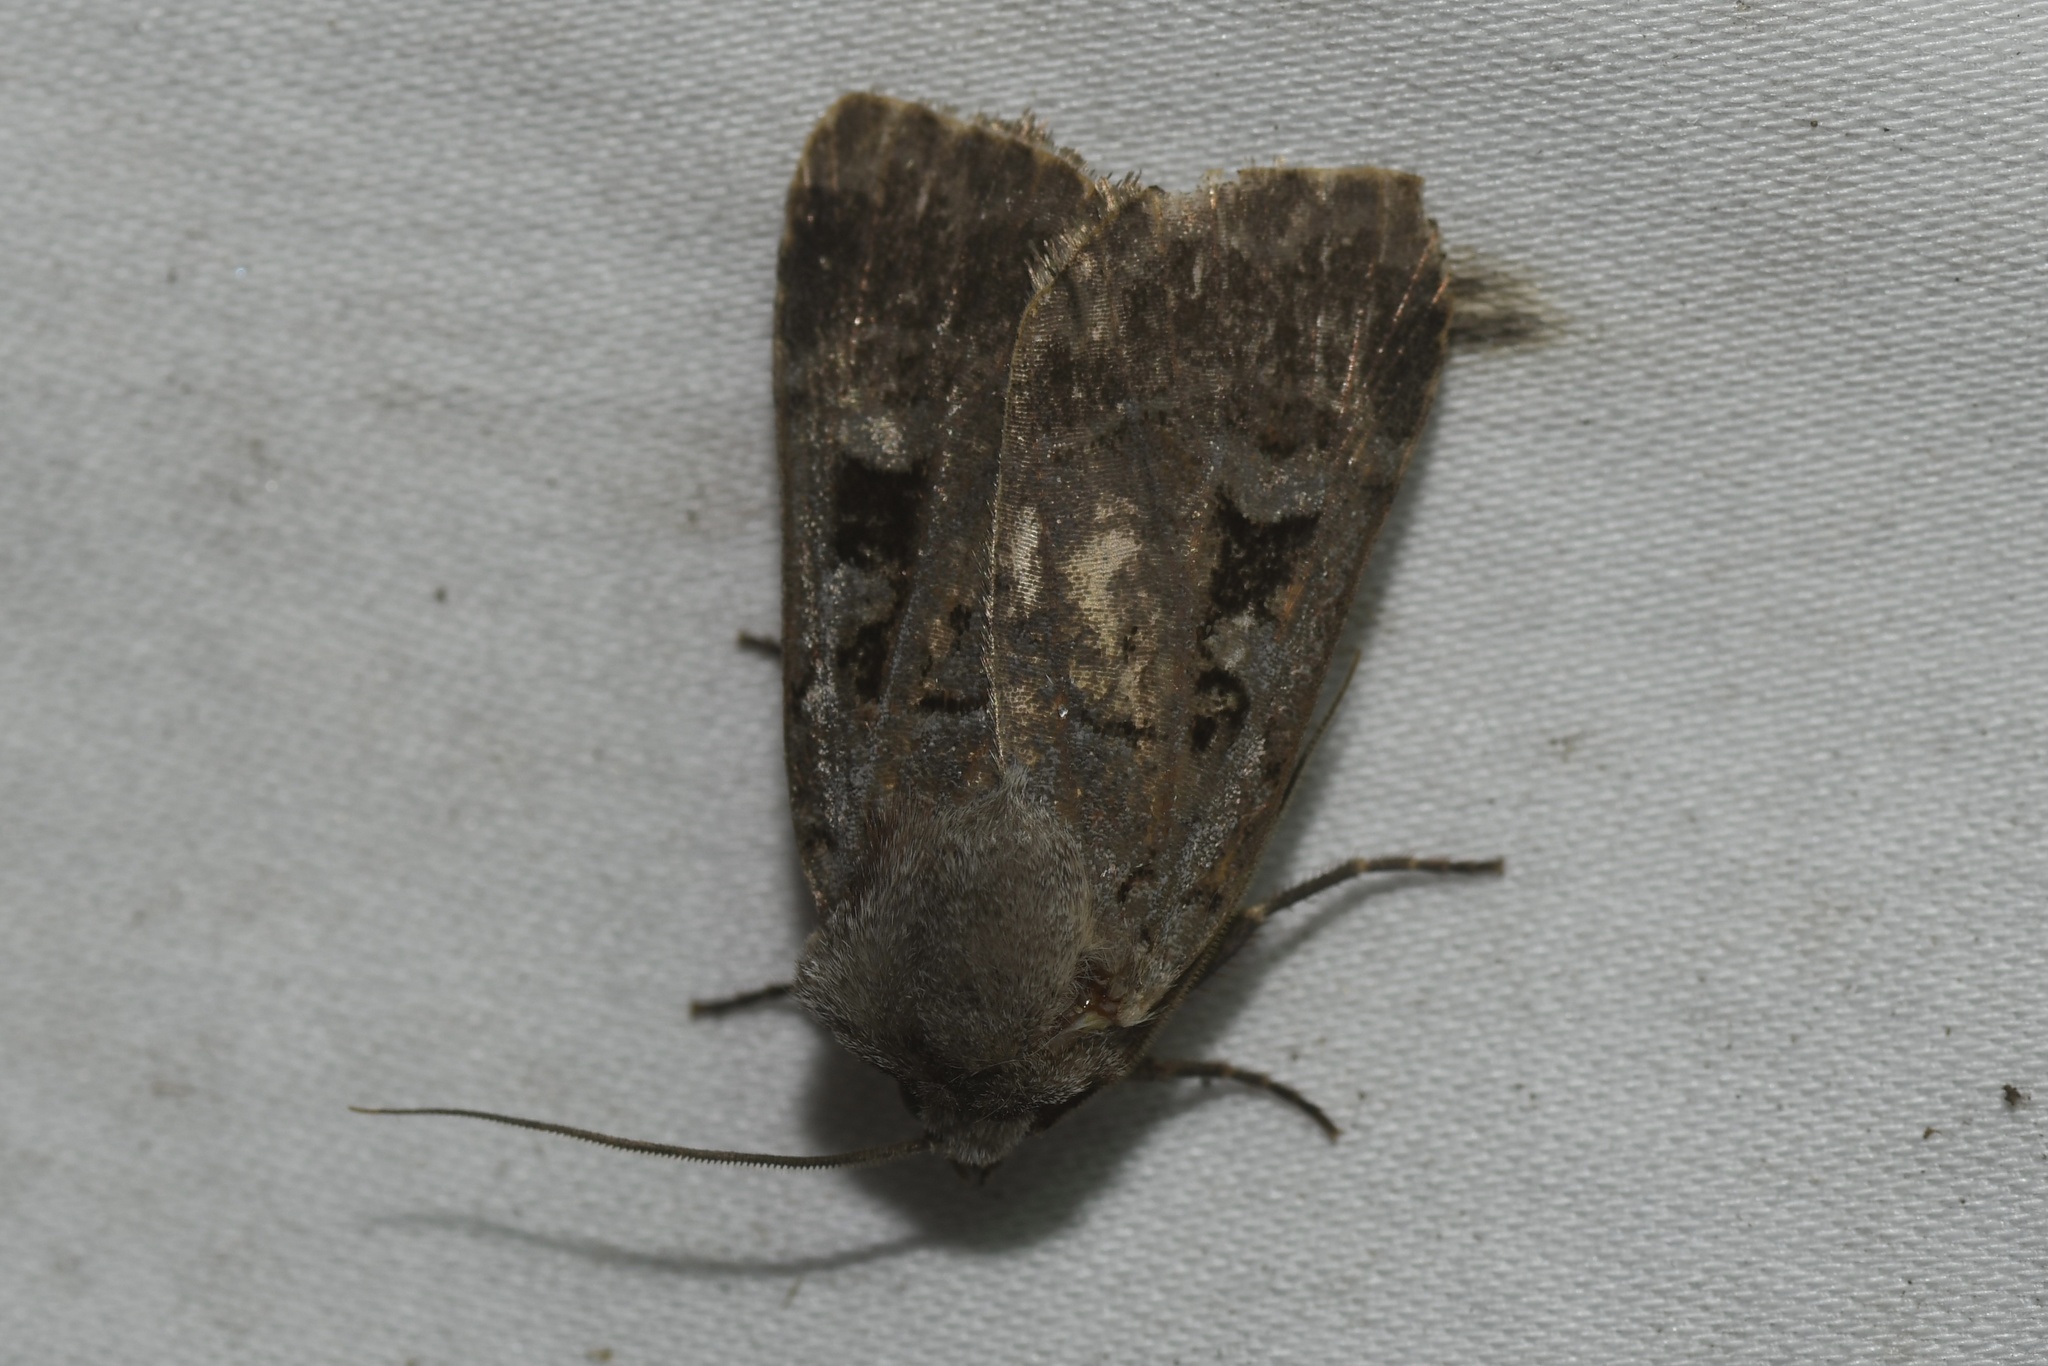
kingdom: Animalia
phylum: Arthropoda
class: Insecta
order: Lepidoptera
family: Noctuidae
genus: Pseudohermonassa
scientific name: Pseudohermonassa tenuicula
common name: Morrison's sooty dart
